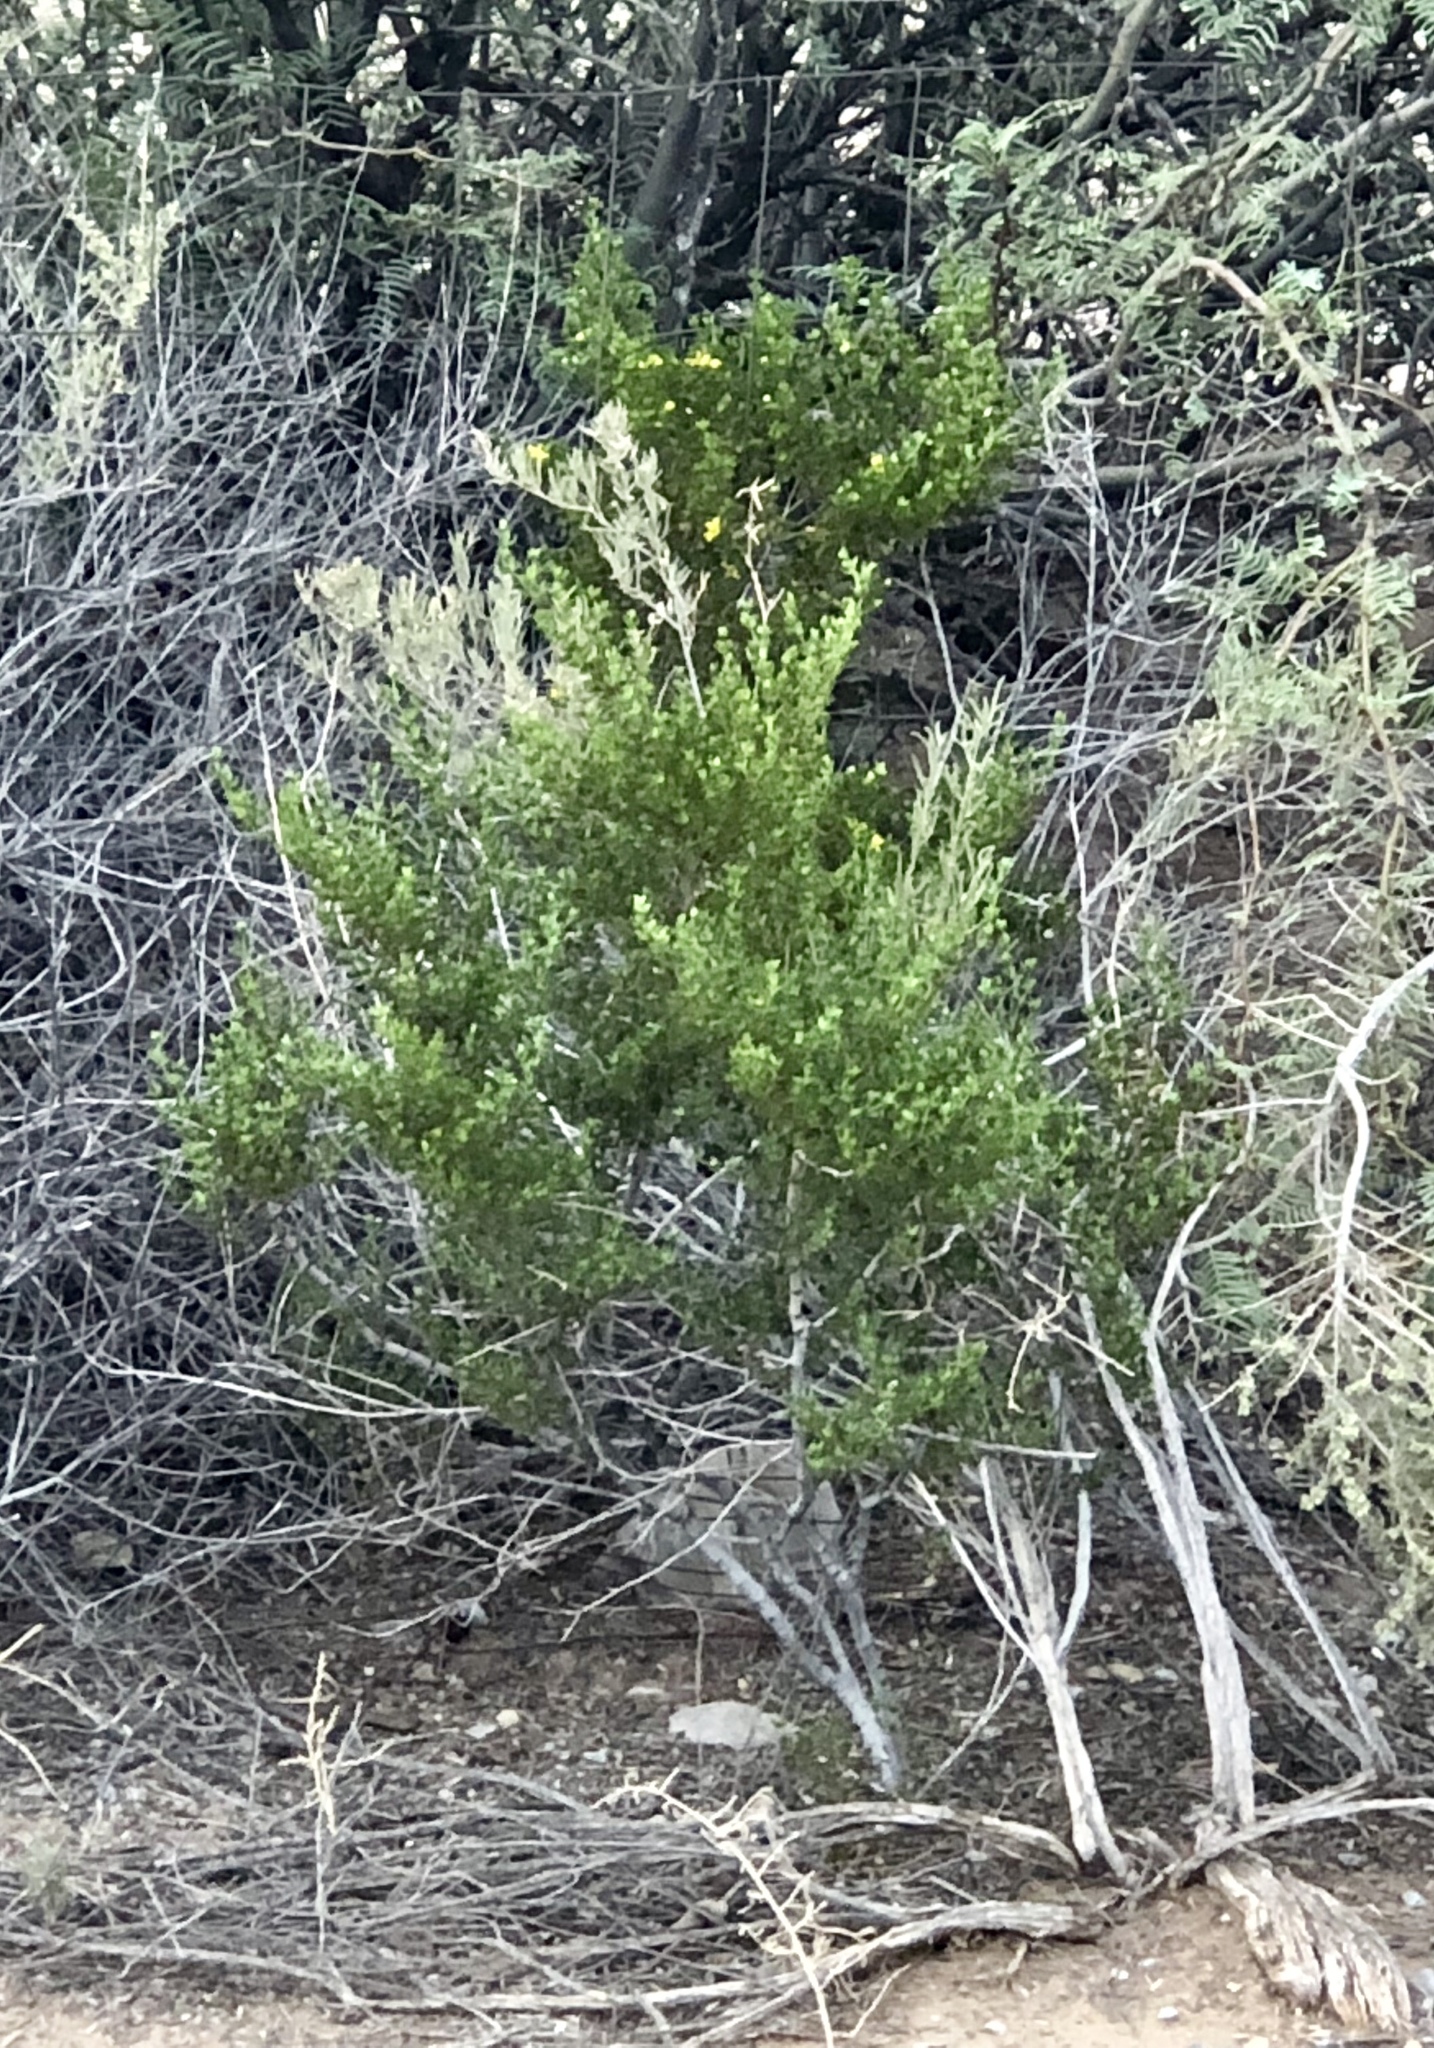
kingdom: Plantae
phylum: Tracheophyta
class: Magnoliopsida
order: Zygophyllales
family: Zygophyllaceae
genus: Larrea
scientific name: Larrea tridentata
